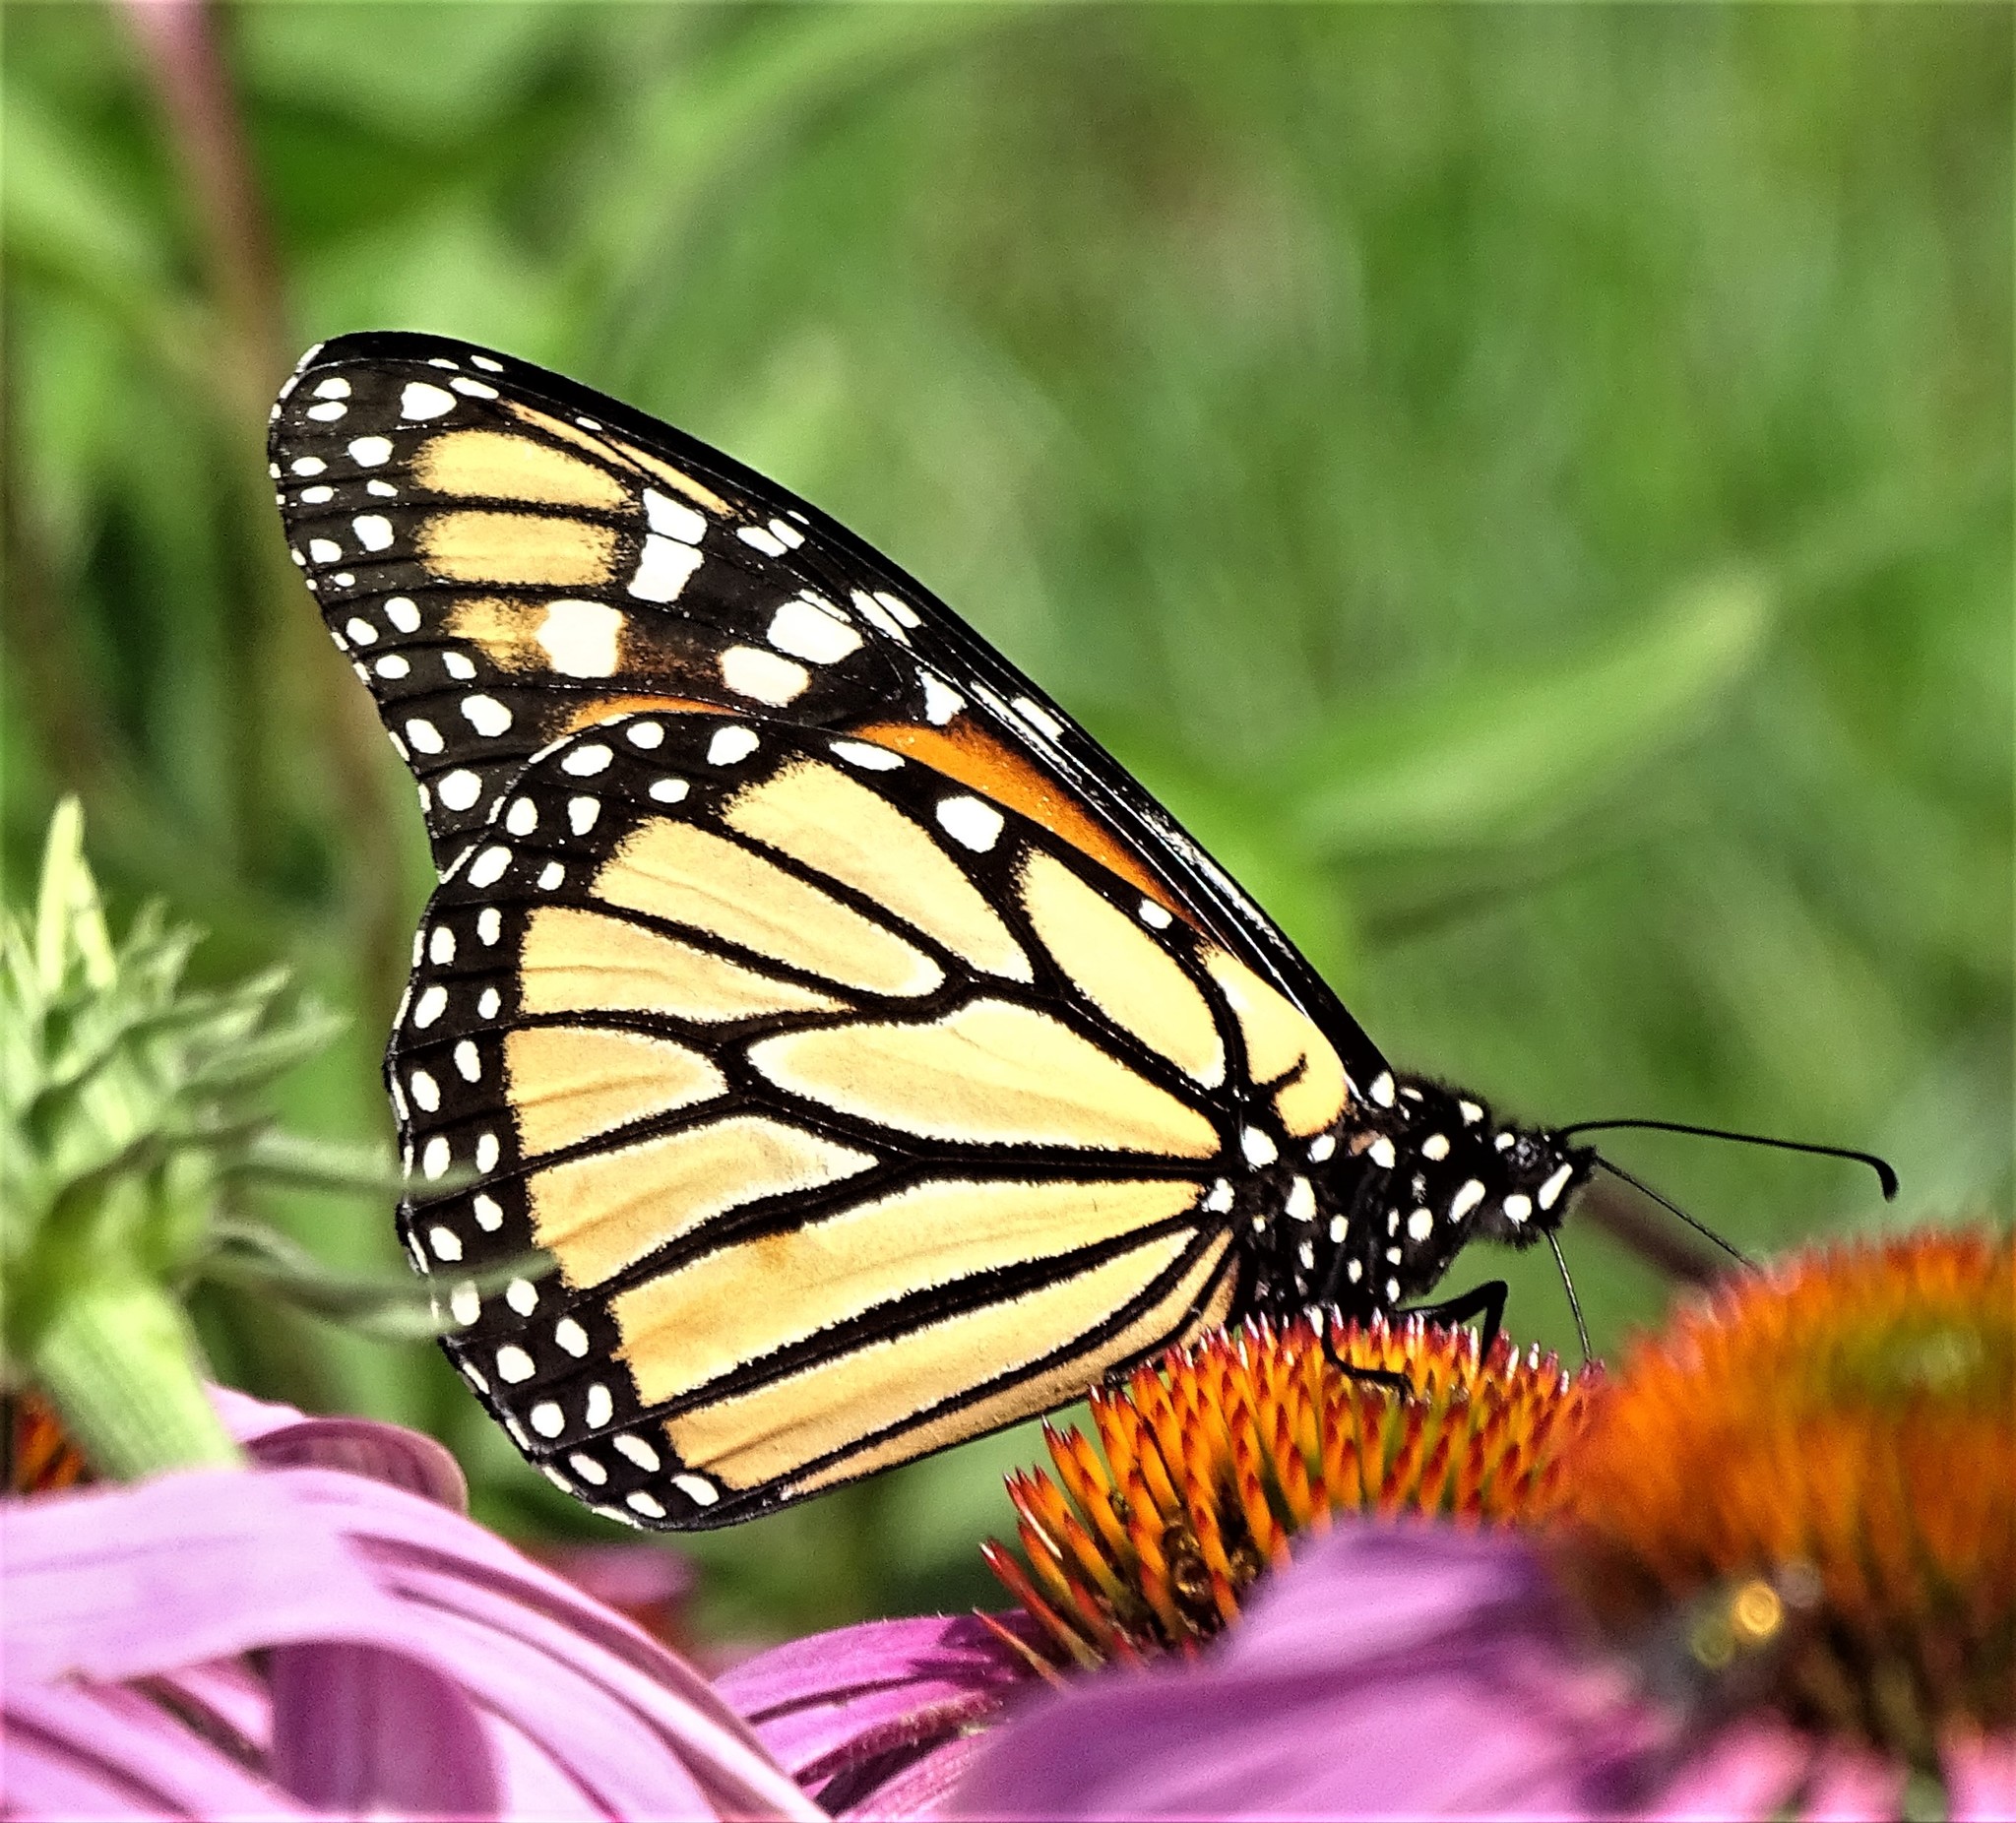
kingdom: Animalia
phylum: Arthropoda
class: Insecta
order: Lepidoptera
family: Nymphalidae
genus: Danaus
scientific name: Danaus plexippus
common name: Monarch
